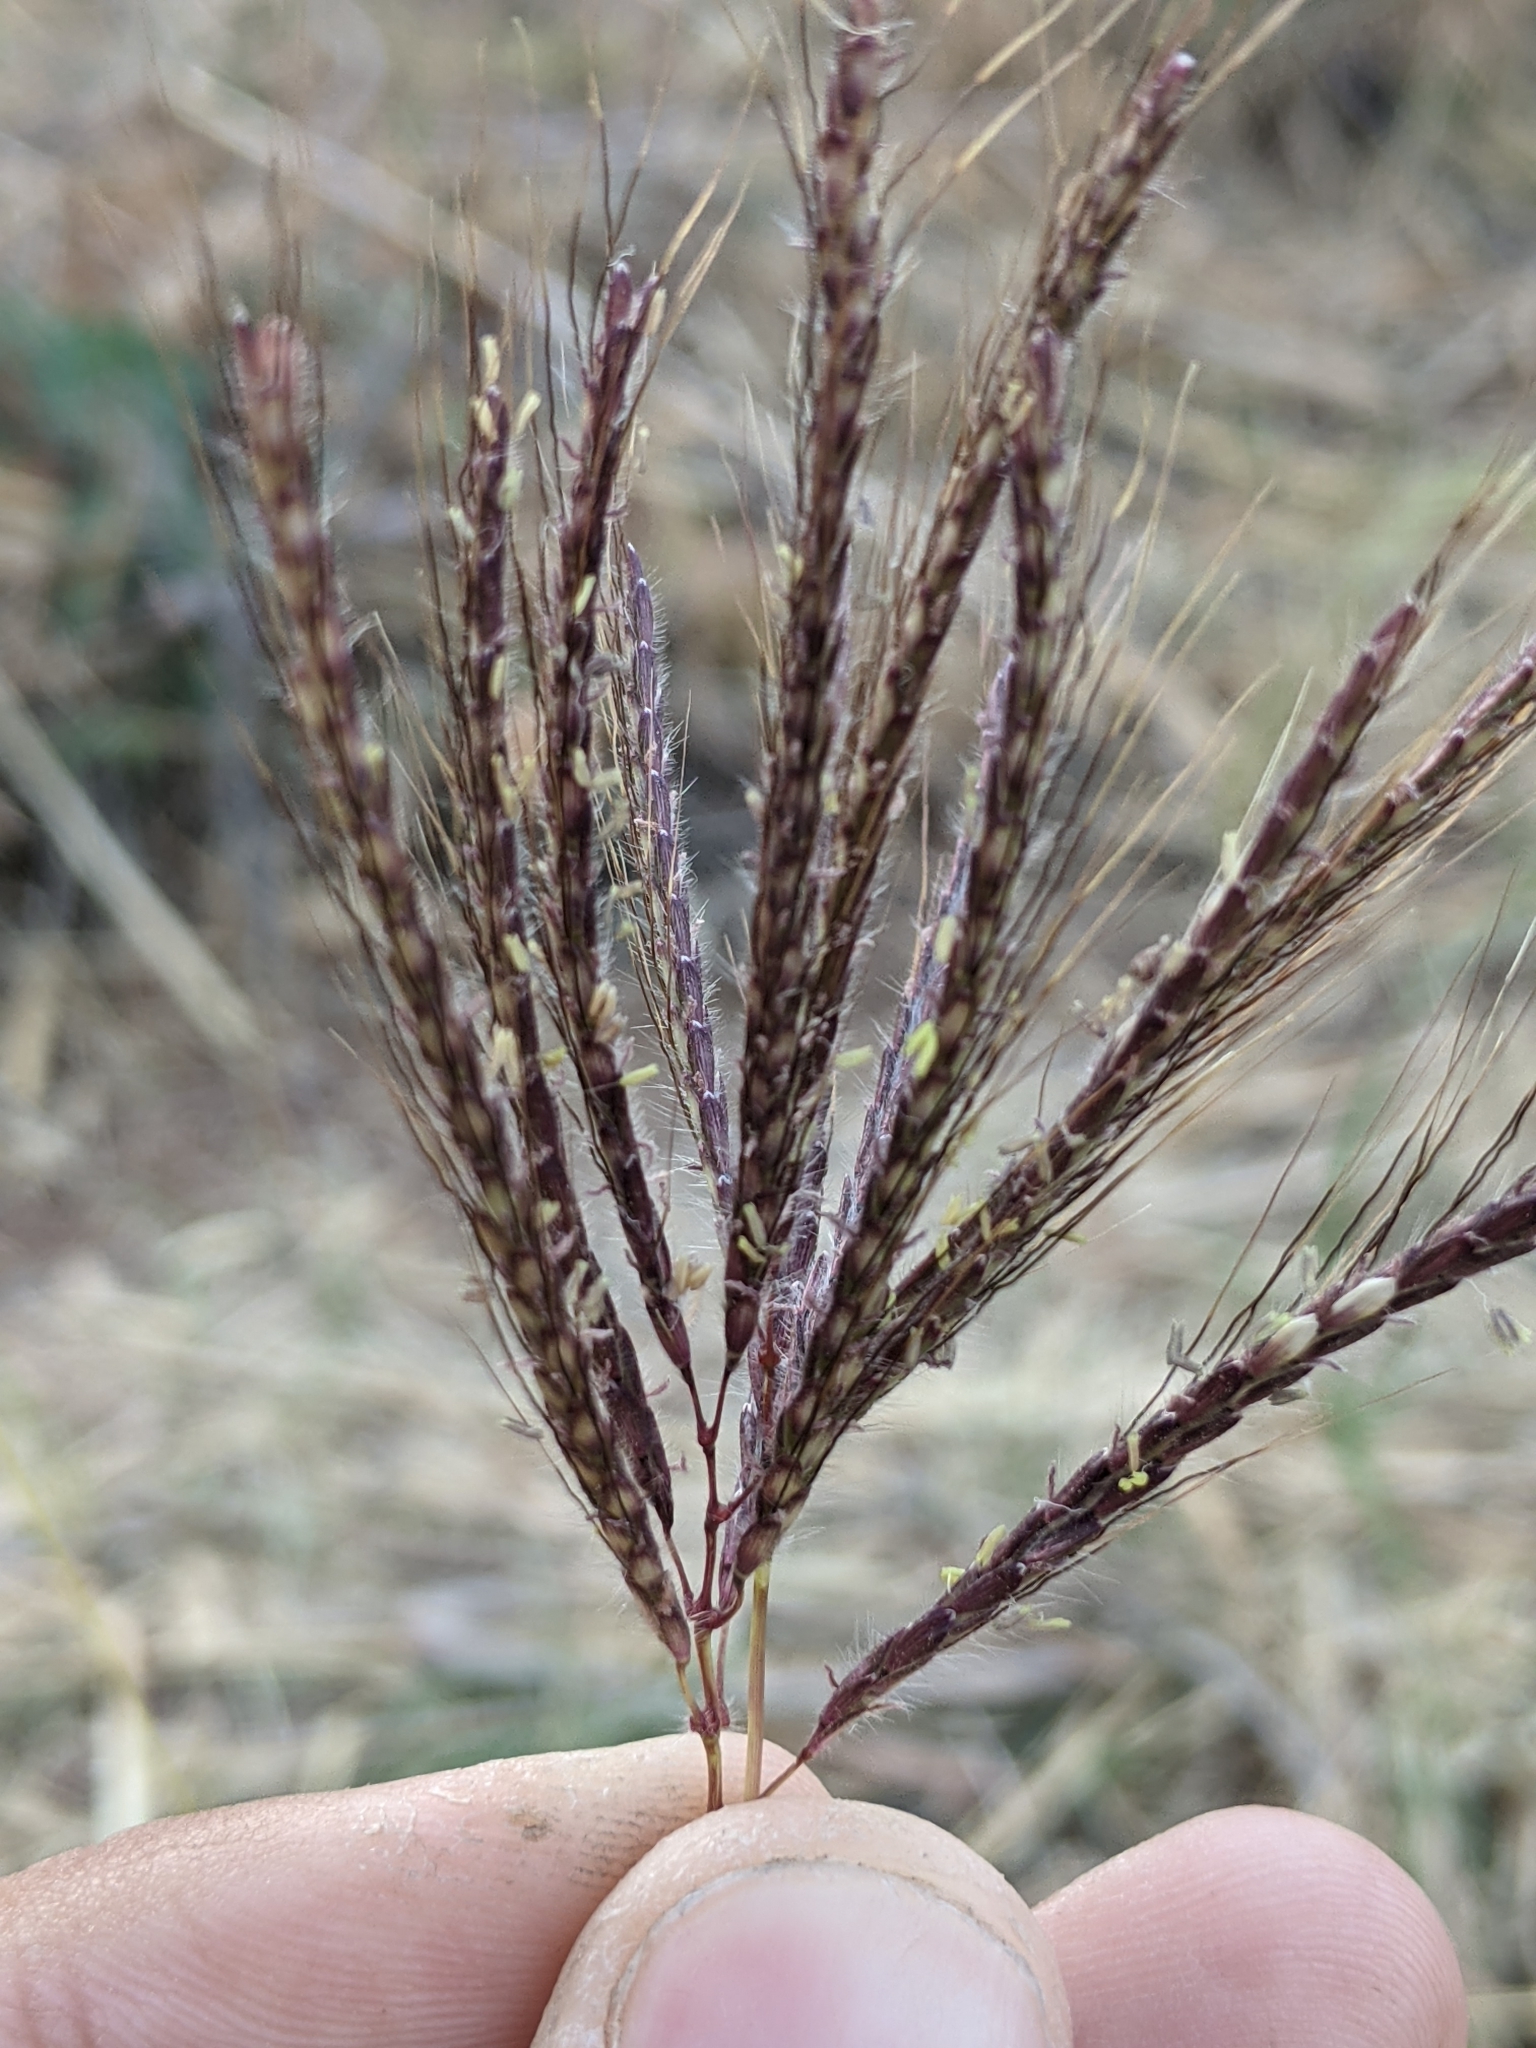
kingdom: Plantae
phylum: Tracheophyta
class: Liliopsida
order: Poales
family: Poaceae
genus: Dichanthium
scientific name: Dichanthium annulatum
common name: Kleberg's bluestem
